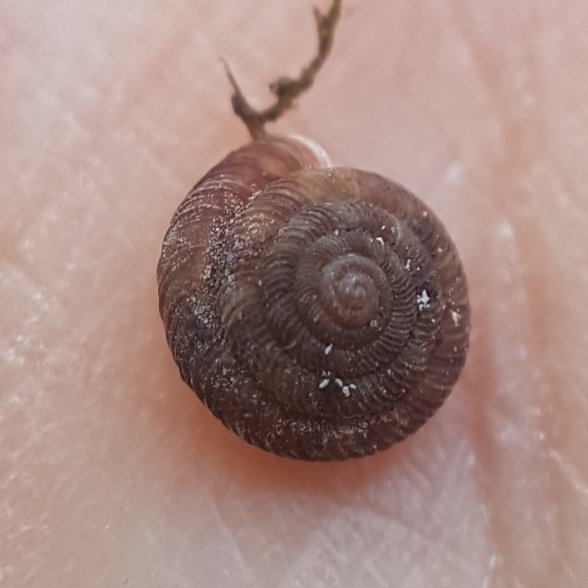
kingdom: Animalia
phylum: Mollusca
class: Gastropoda
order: Stylommatophora
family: Discidae
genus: Discus
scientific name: Discus rotundatus
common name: Rounded snail
